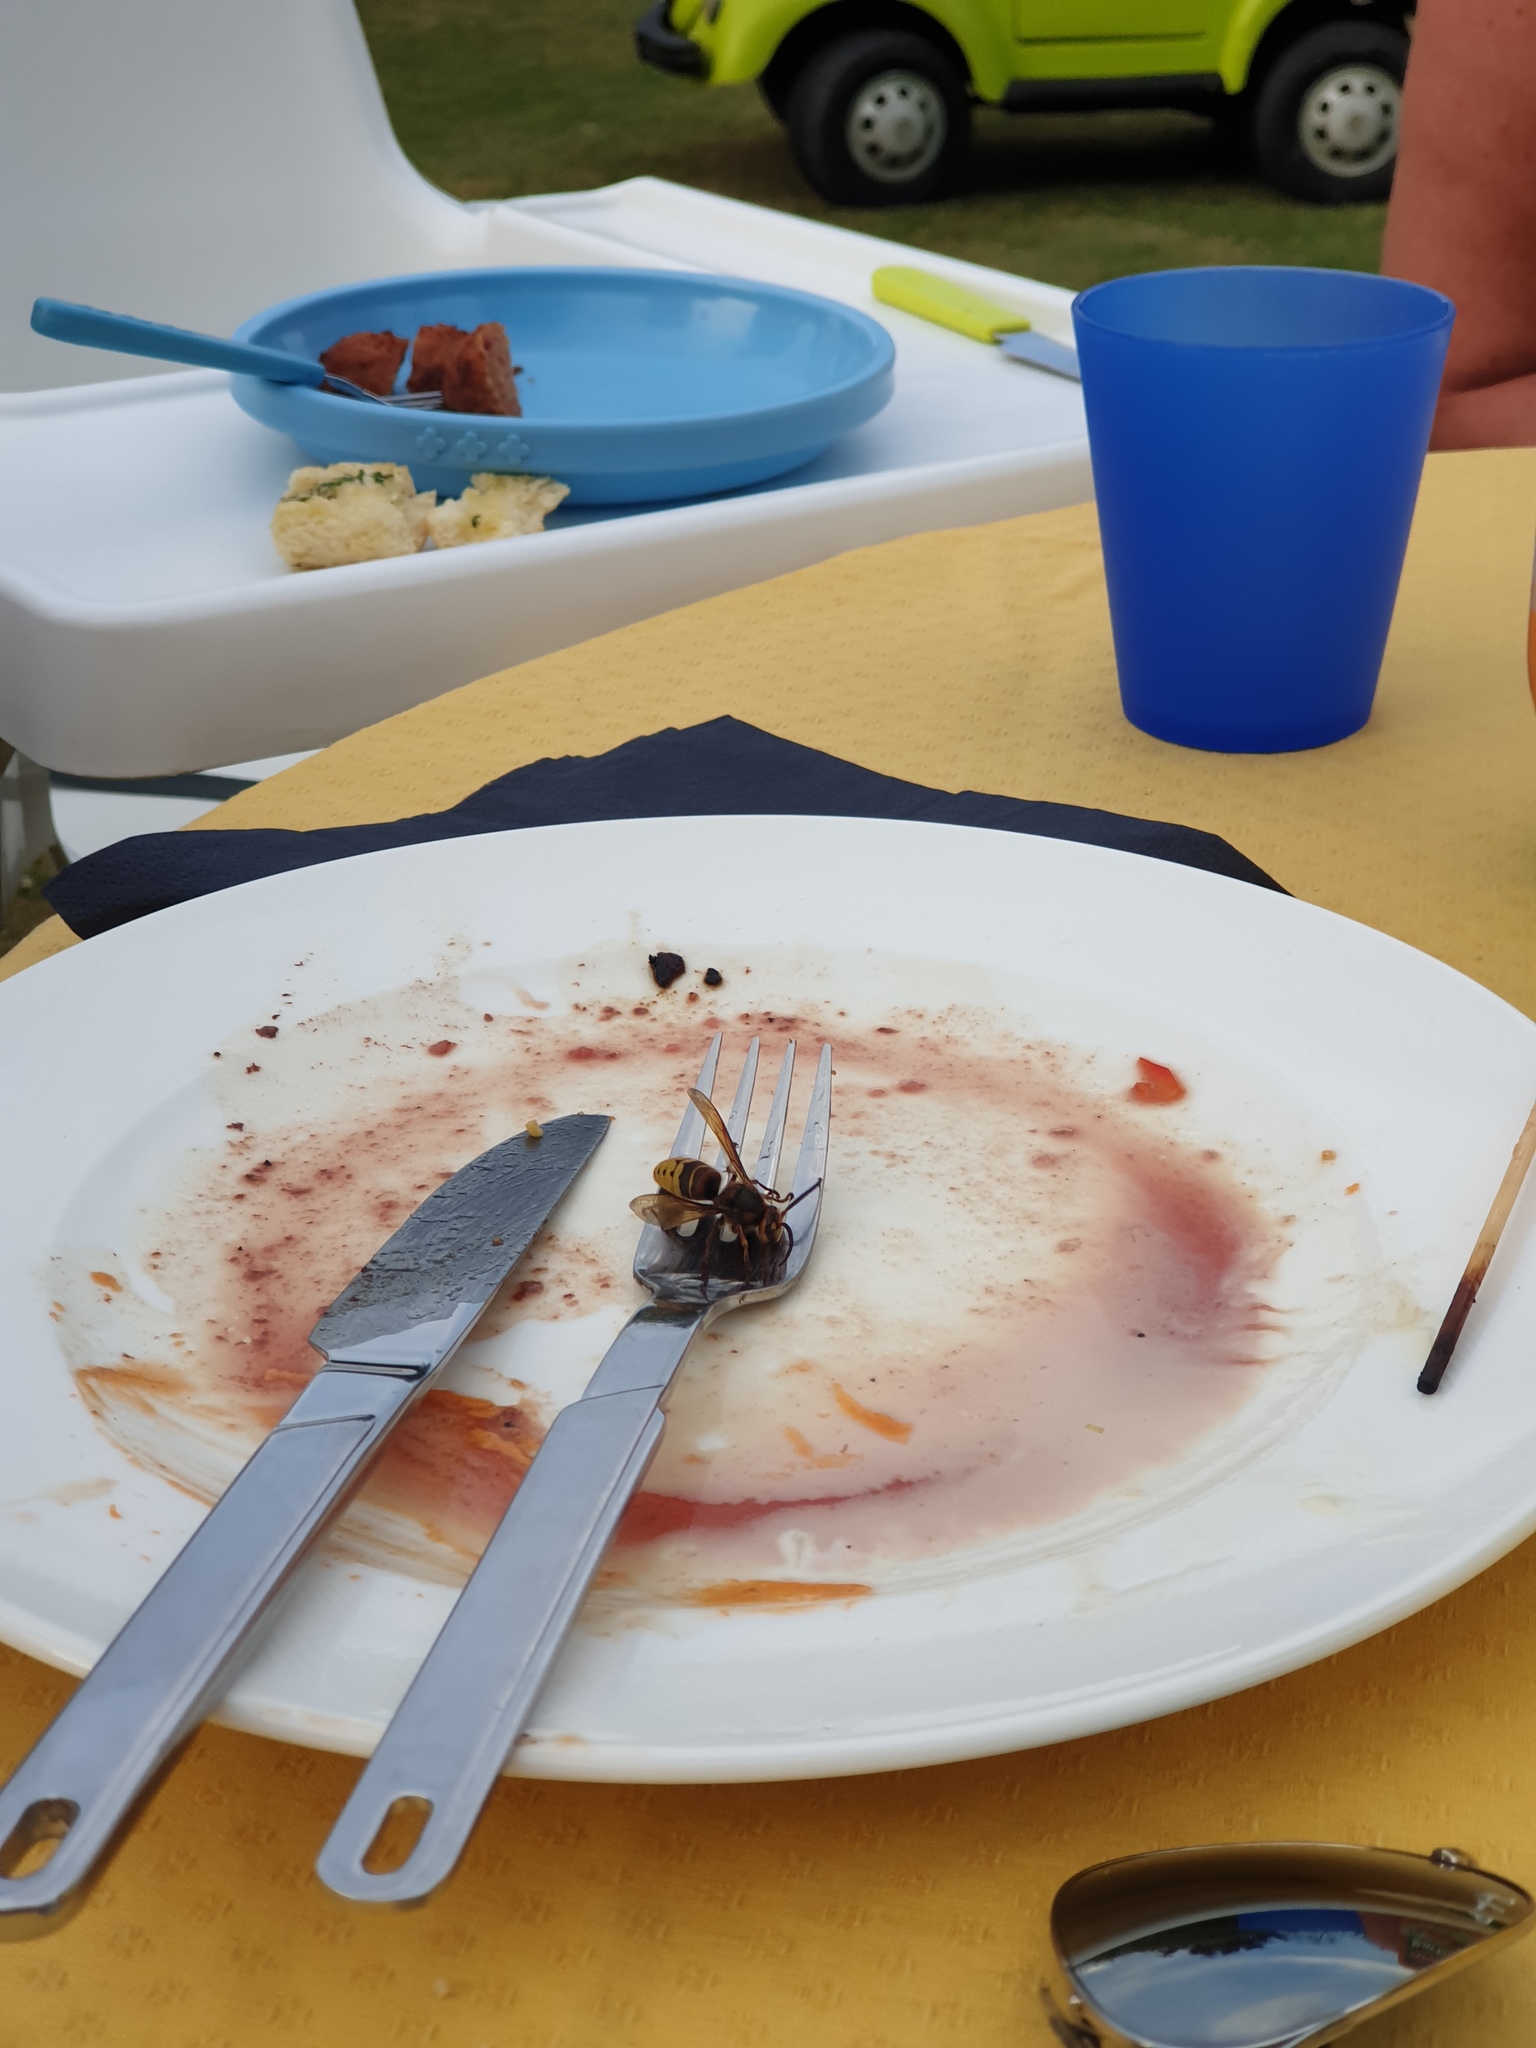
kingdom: Animalia
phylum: Arthropoda
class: Insecta
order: Hymenoptera
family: Vespidae
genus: Vespa
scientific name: Vespa crabro
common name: Hornet
